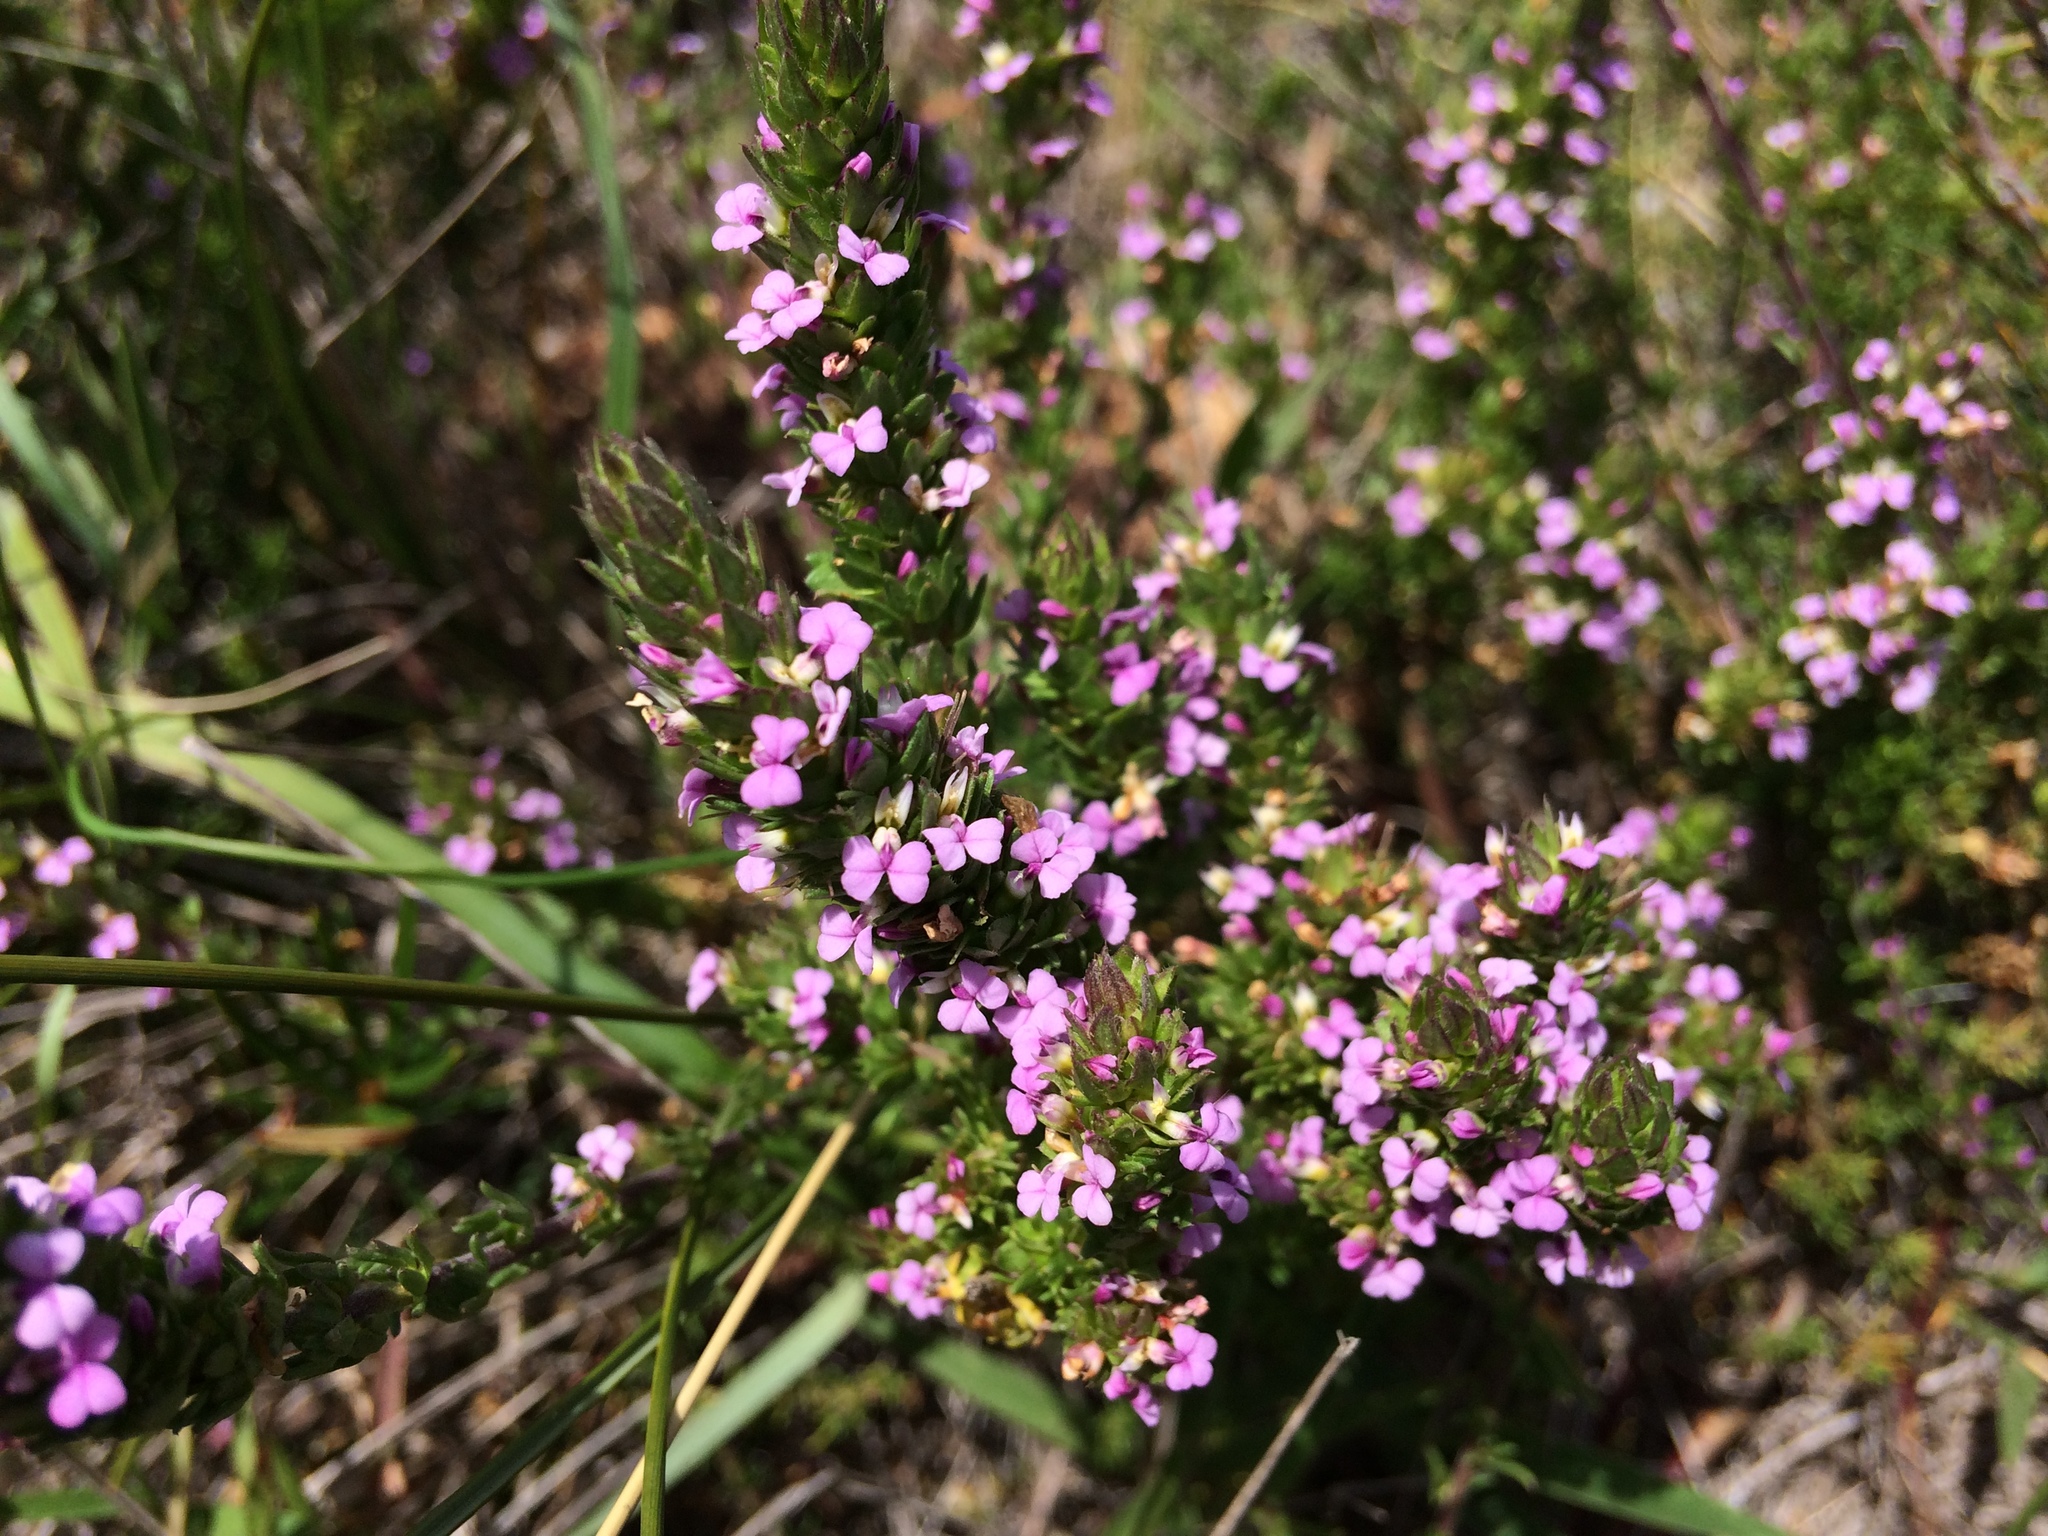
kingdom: Plantae
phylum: Tracheophyta
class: Magnoliopsida
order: Fabales
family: Polygalaceae
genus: Muraltia
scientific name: Muraltia alopecuroides
